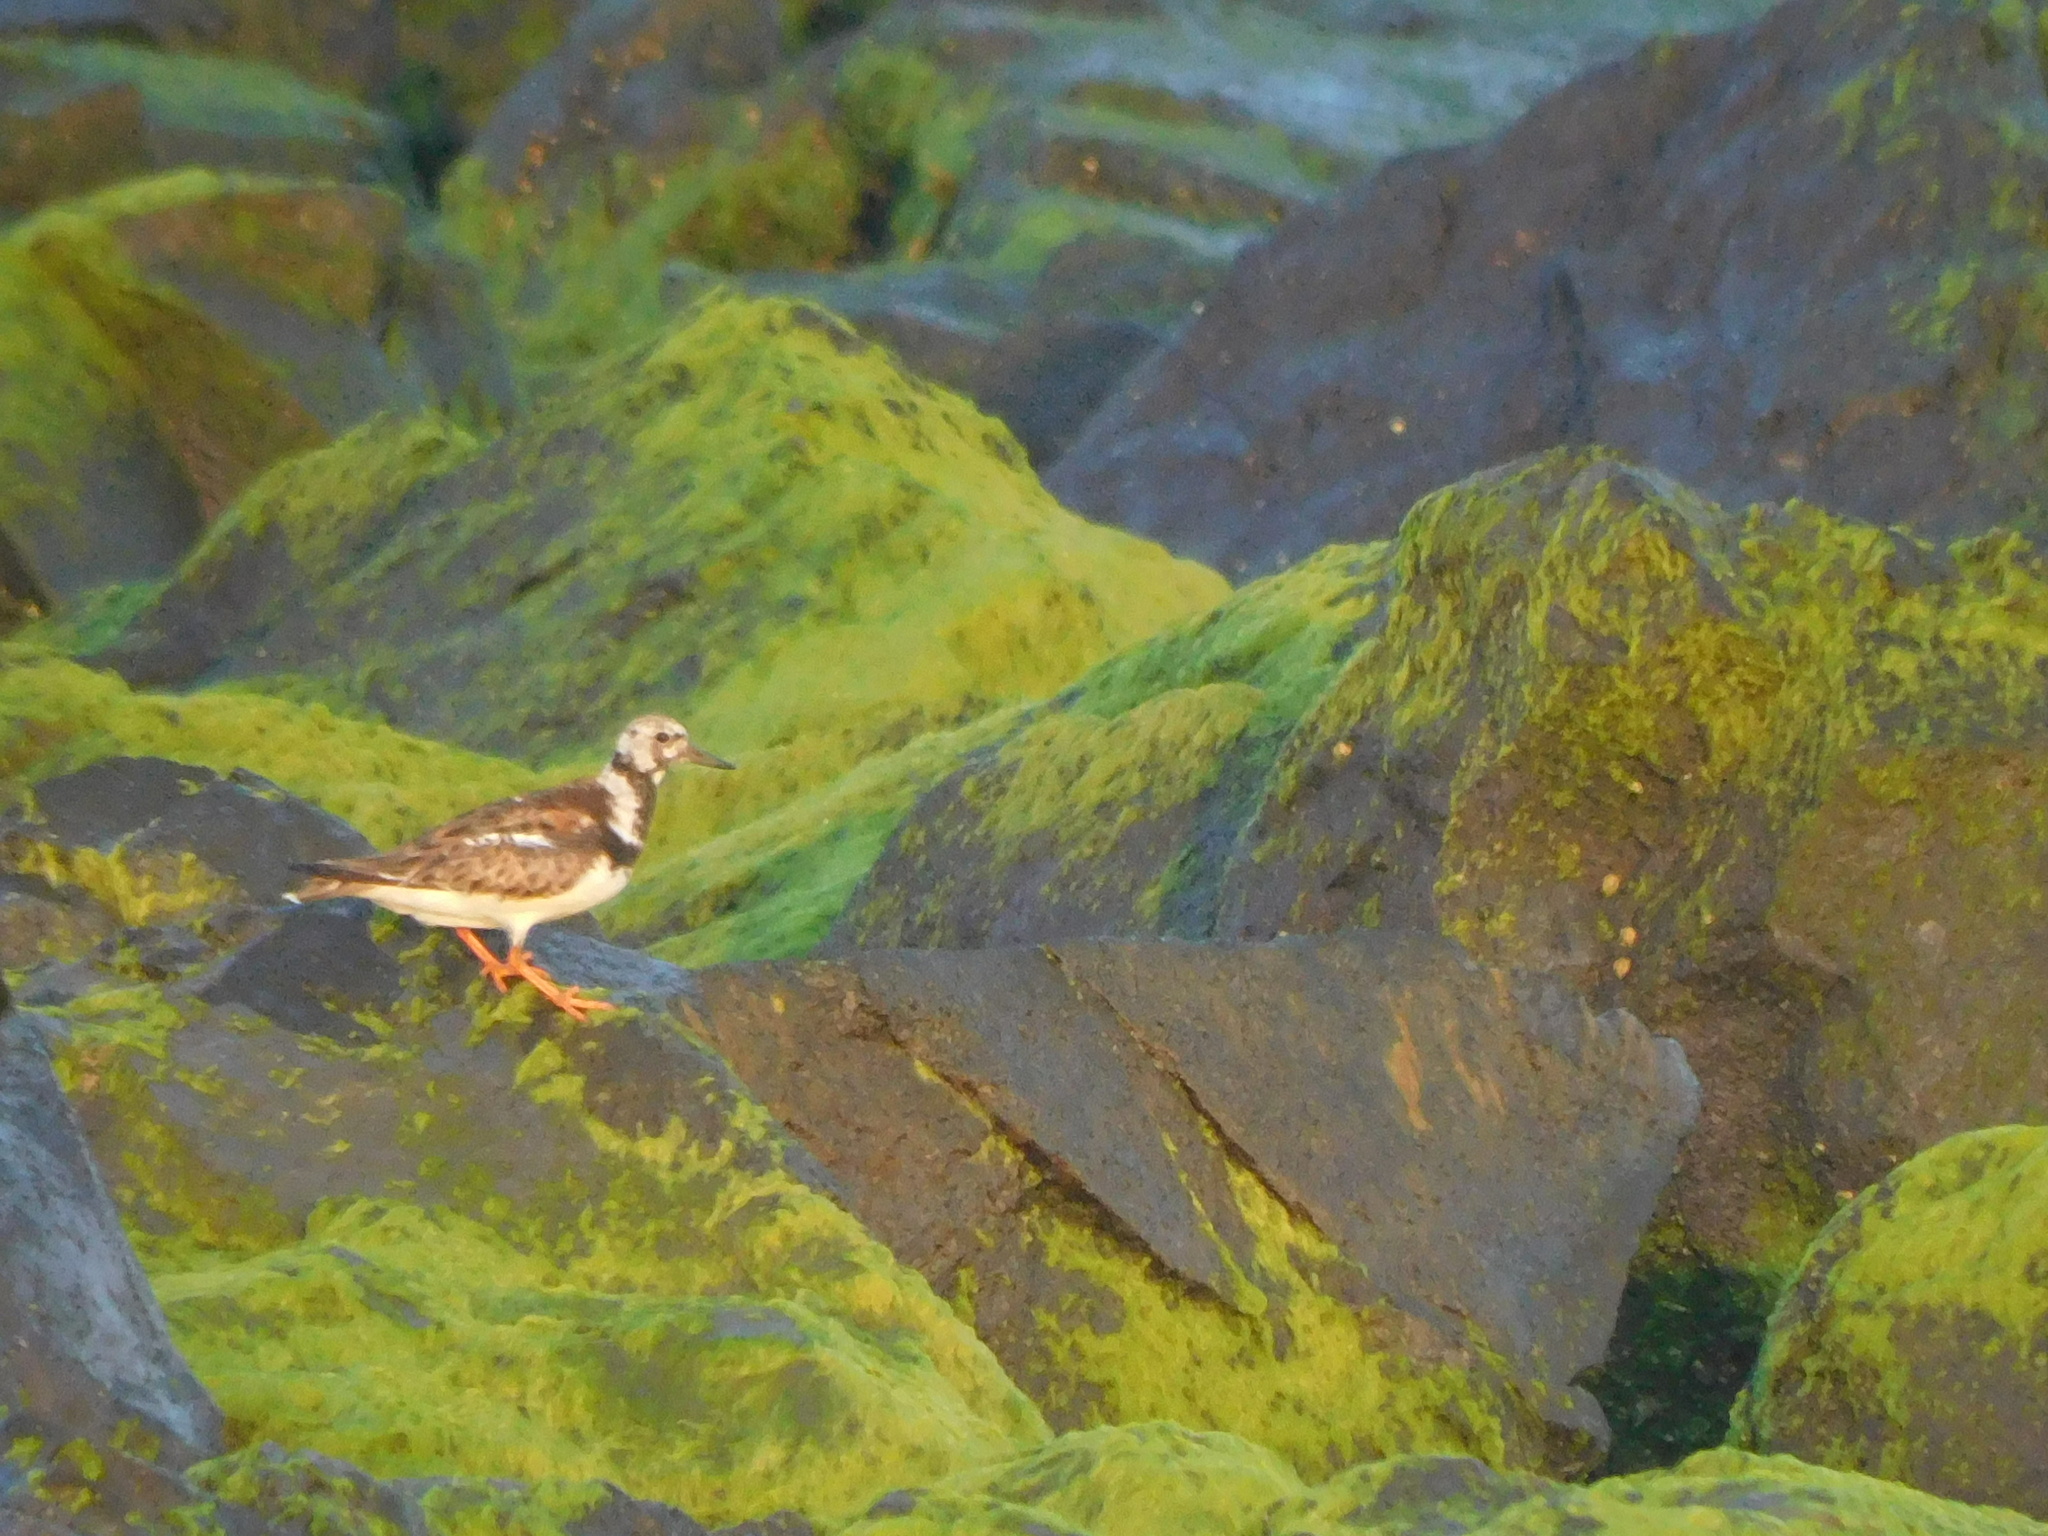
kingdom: Animalia
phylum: Chordata
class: Aves
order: Charadriiformes
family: Scolopacidae
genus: Arenaria
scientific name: Arenaria interpres
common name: Ruddy turnstone
